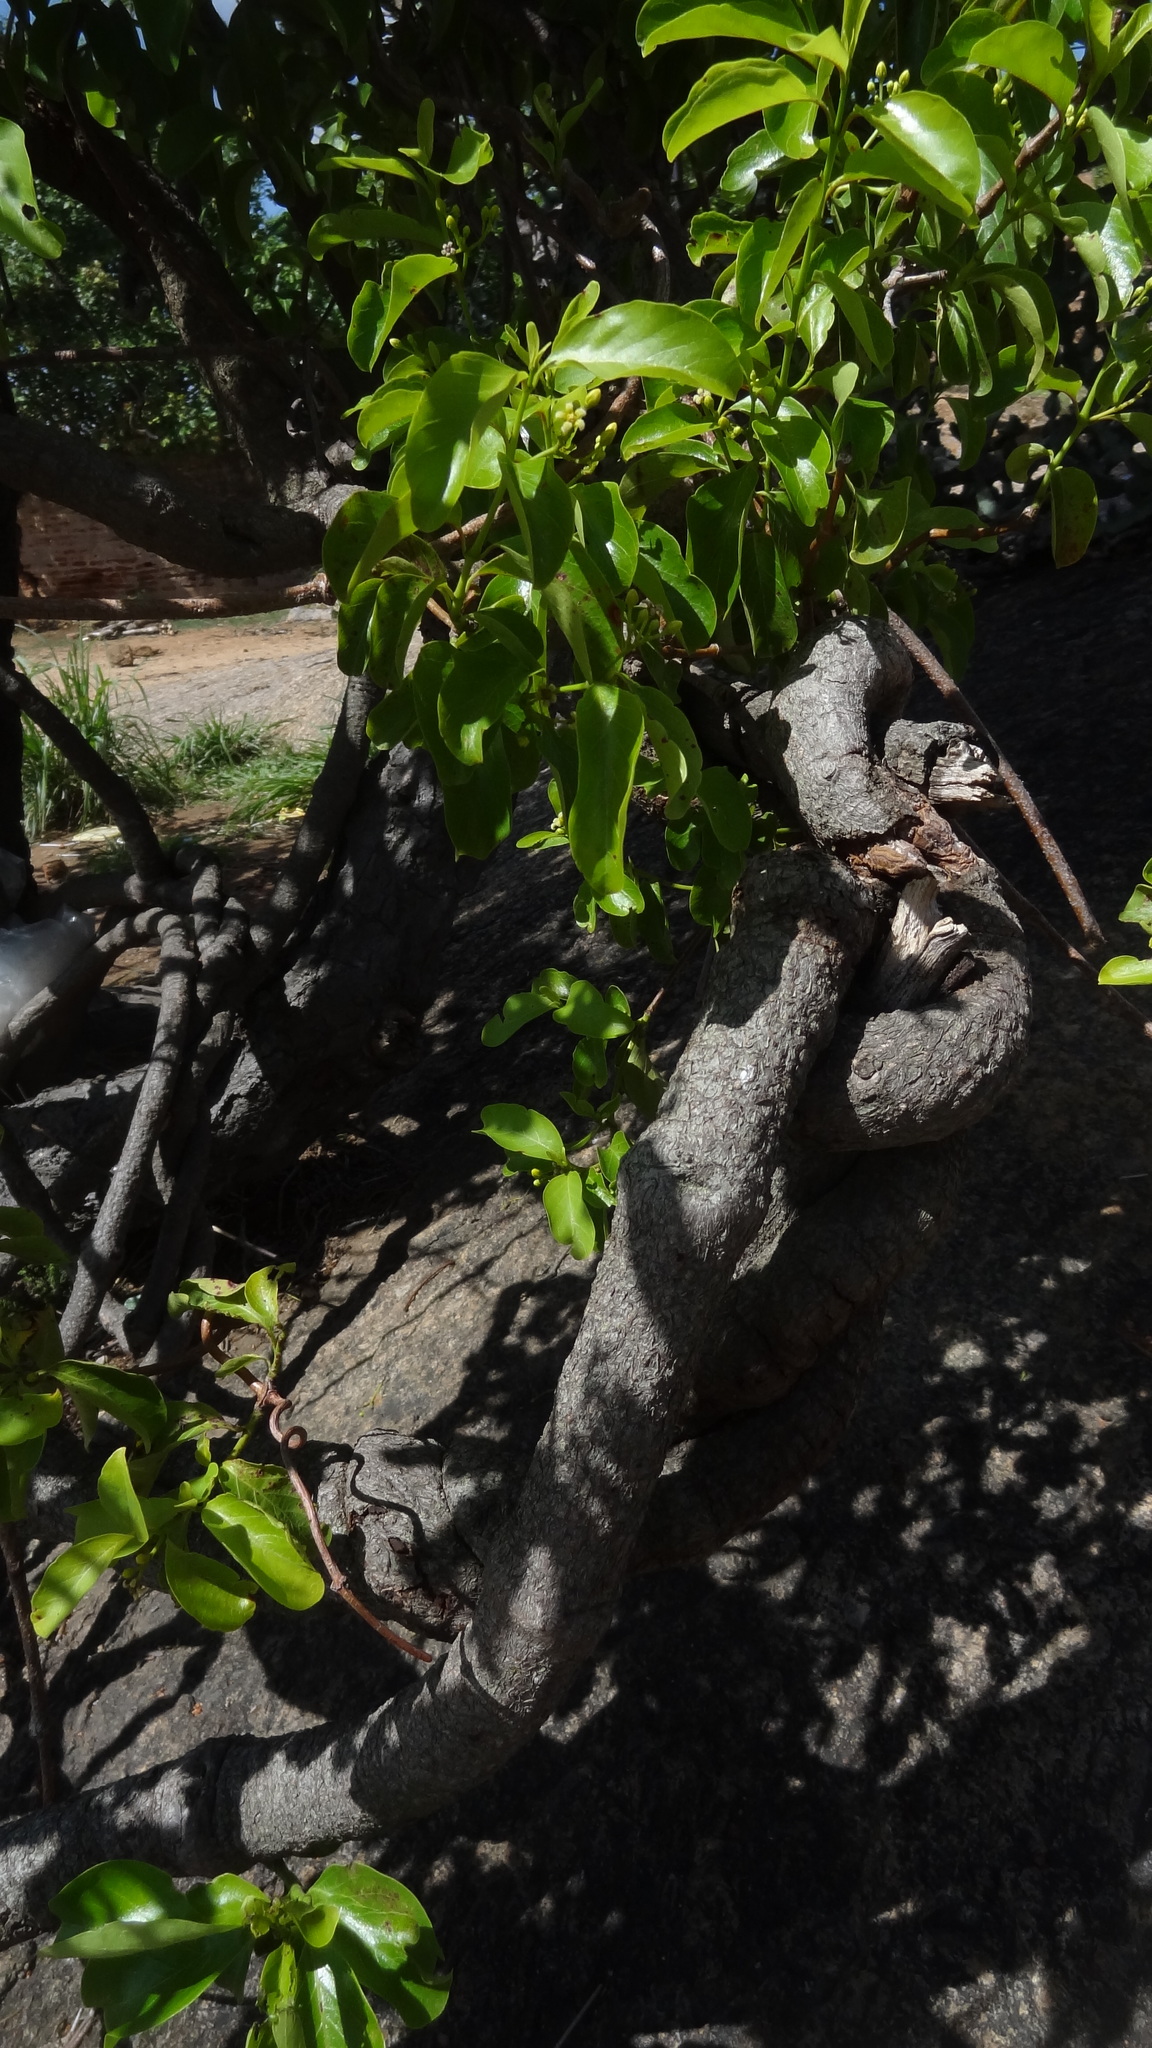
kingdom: Plantae
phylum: Tracheophyta
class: Magnoliopsida
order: Gentianales
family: Apocynaceae
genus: Decalepis
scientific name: Decalepis hamiltonii
